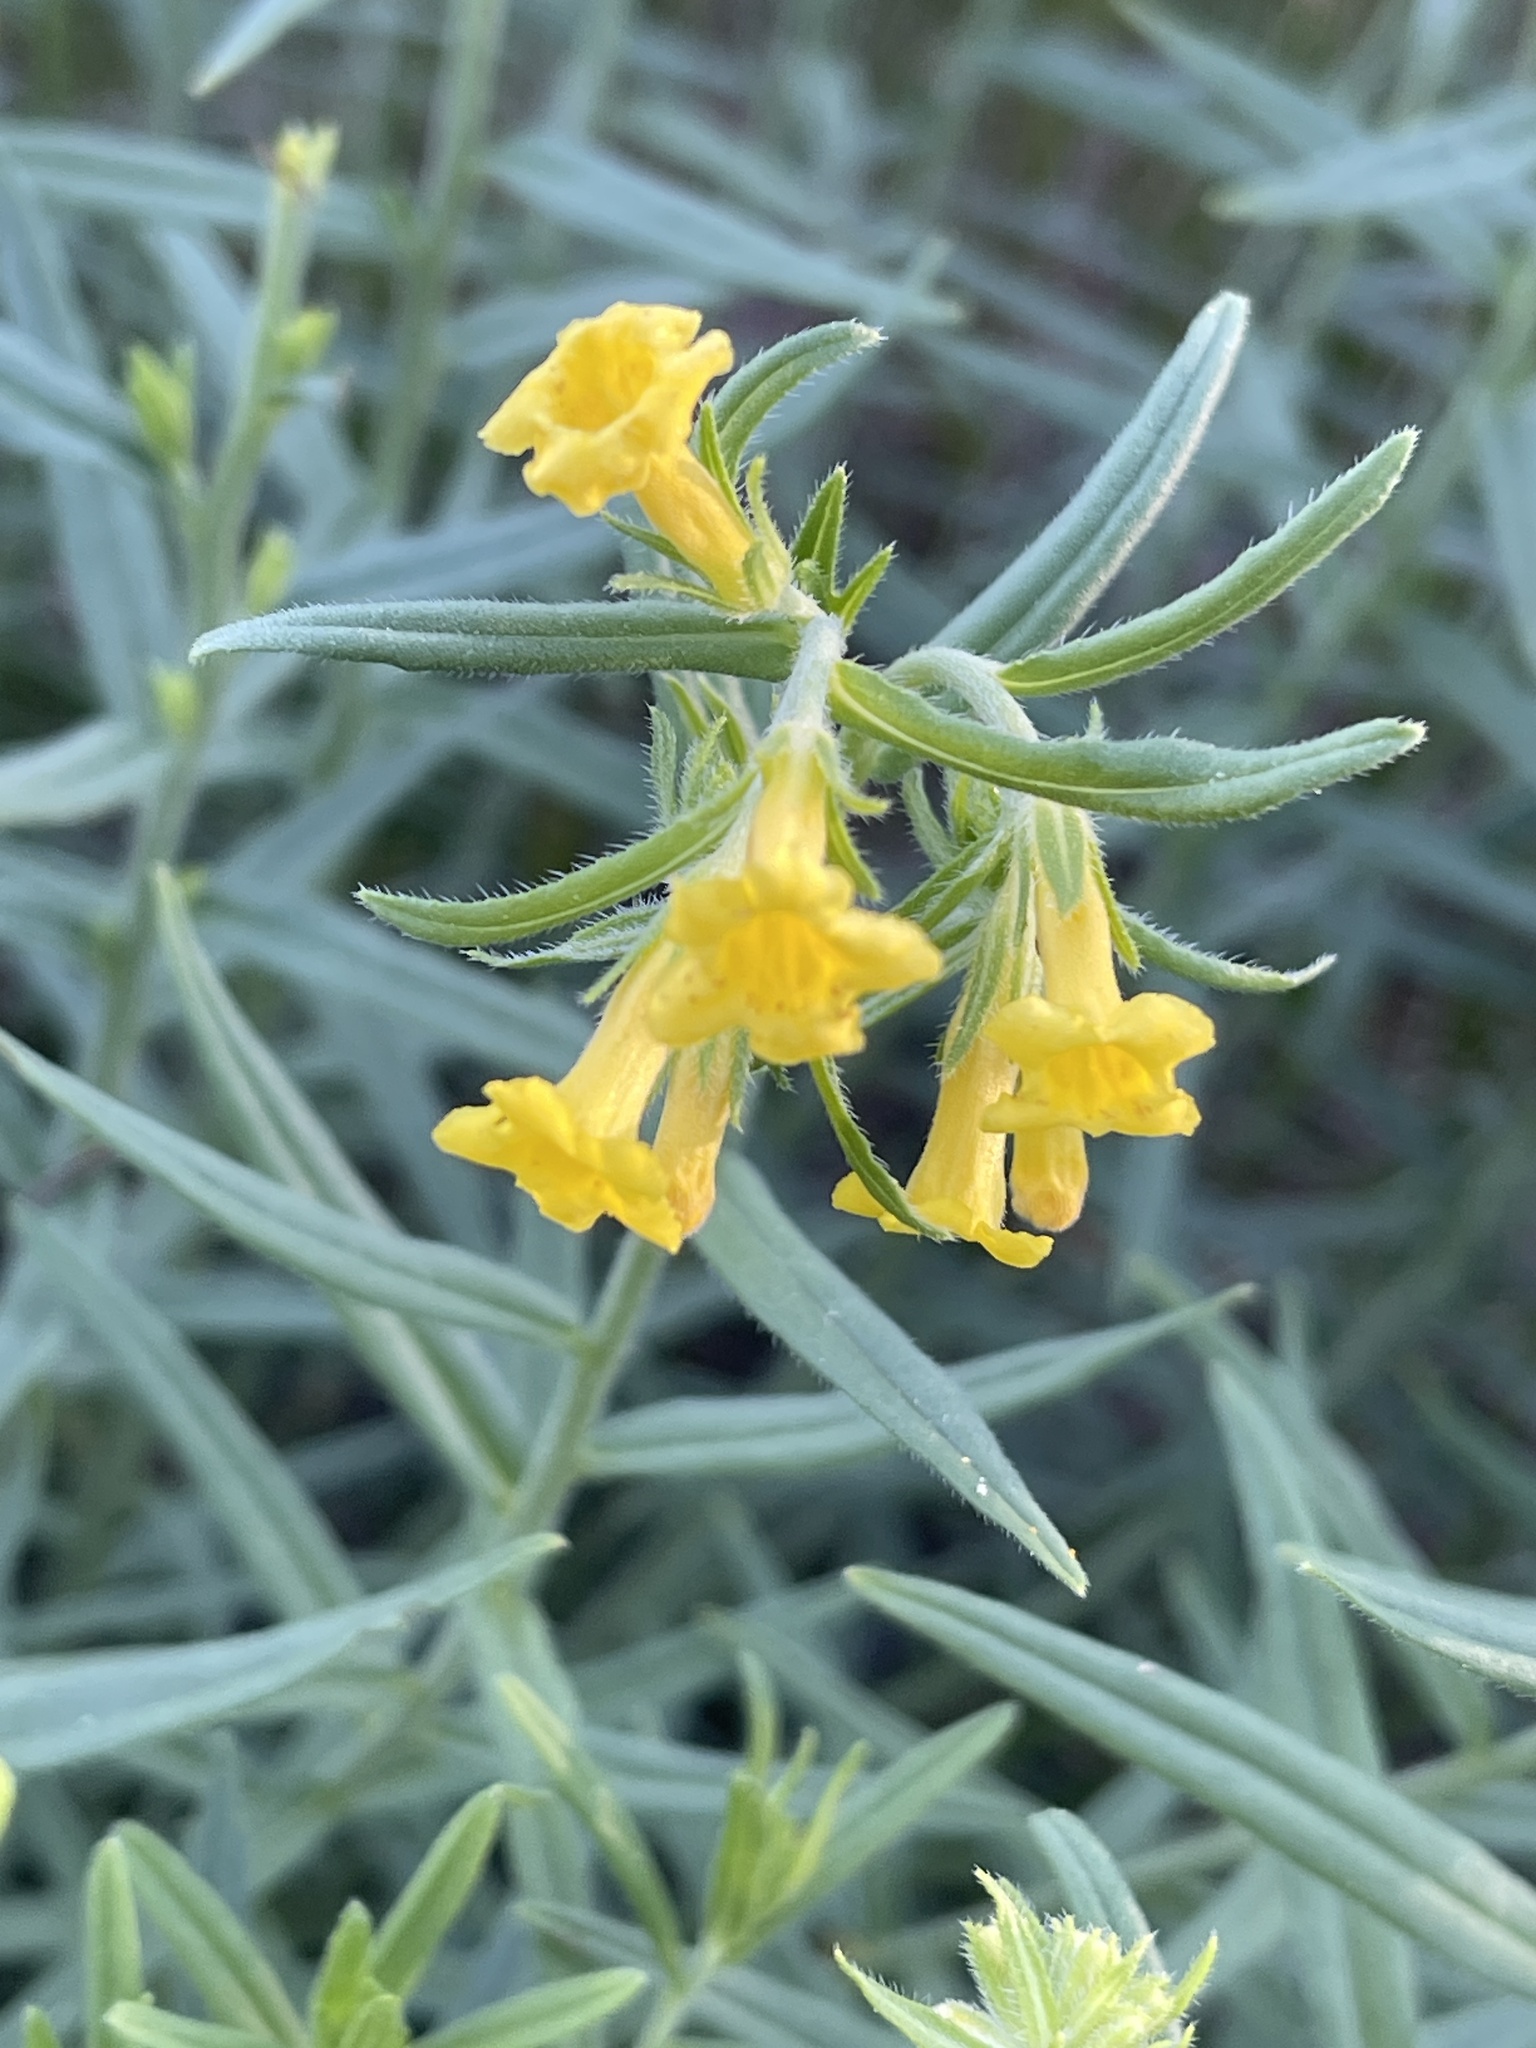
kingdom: Plantae
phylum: Tracheophyta
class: Magnoliopsida
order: Boraginales
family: Boraginaceae
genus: Lithospermum
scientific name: Lithospermum multiflorum
